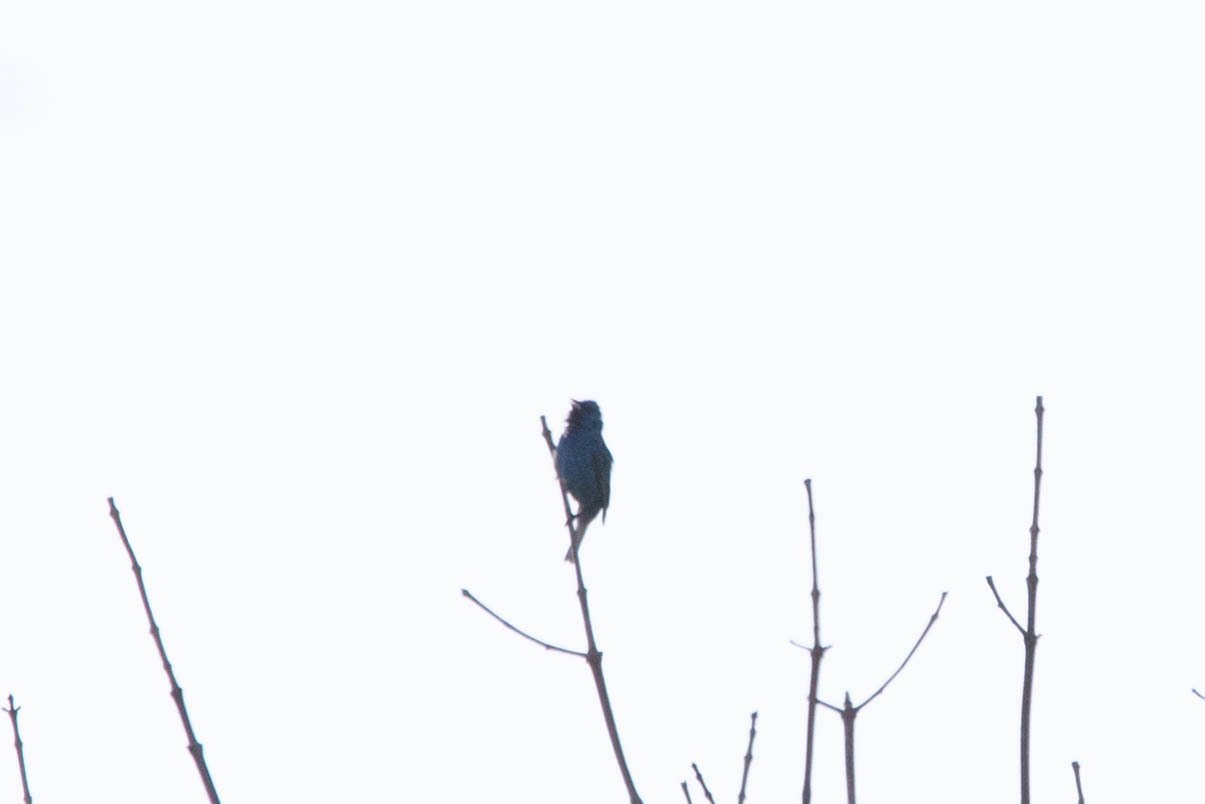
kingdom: Animalia
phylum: Chordata
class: Aves
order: Passeriformes
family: Cardinalidae
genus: Passerina
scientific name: Passerina cyanea
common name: Indigo bunting
